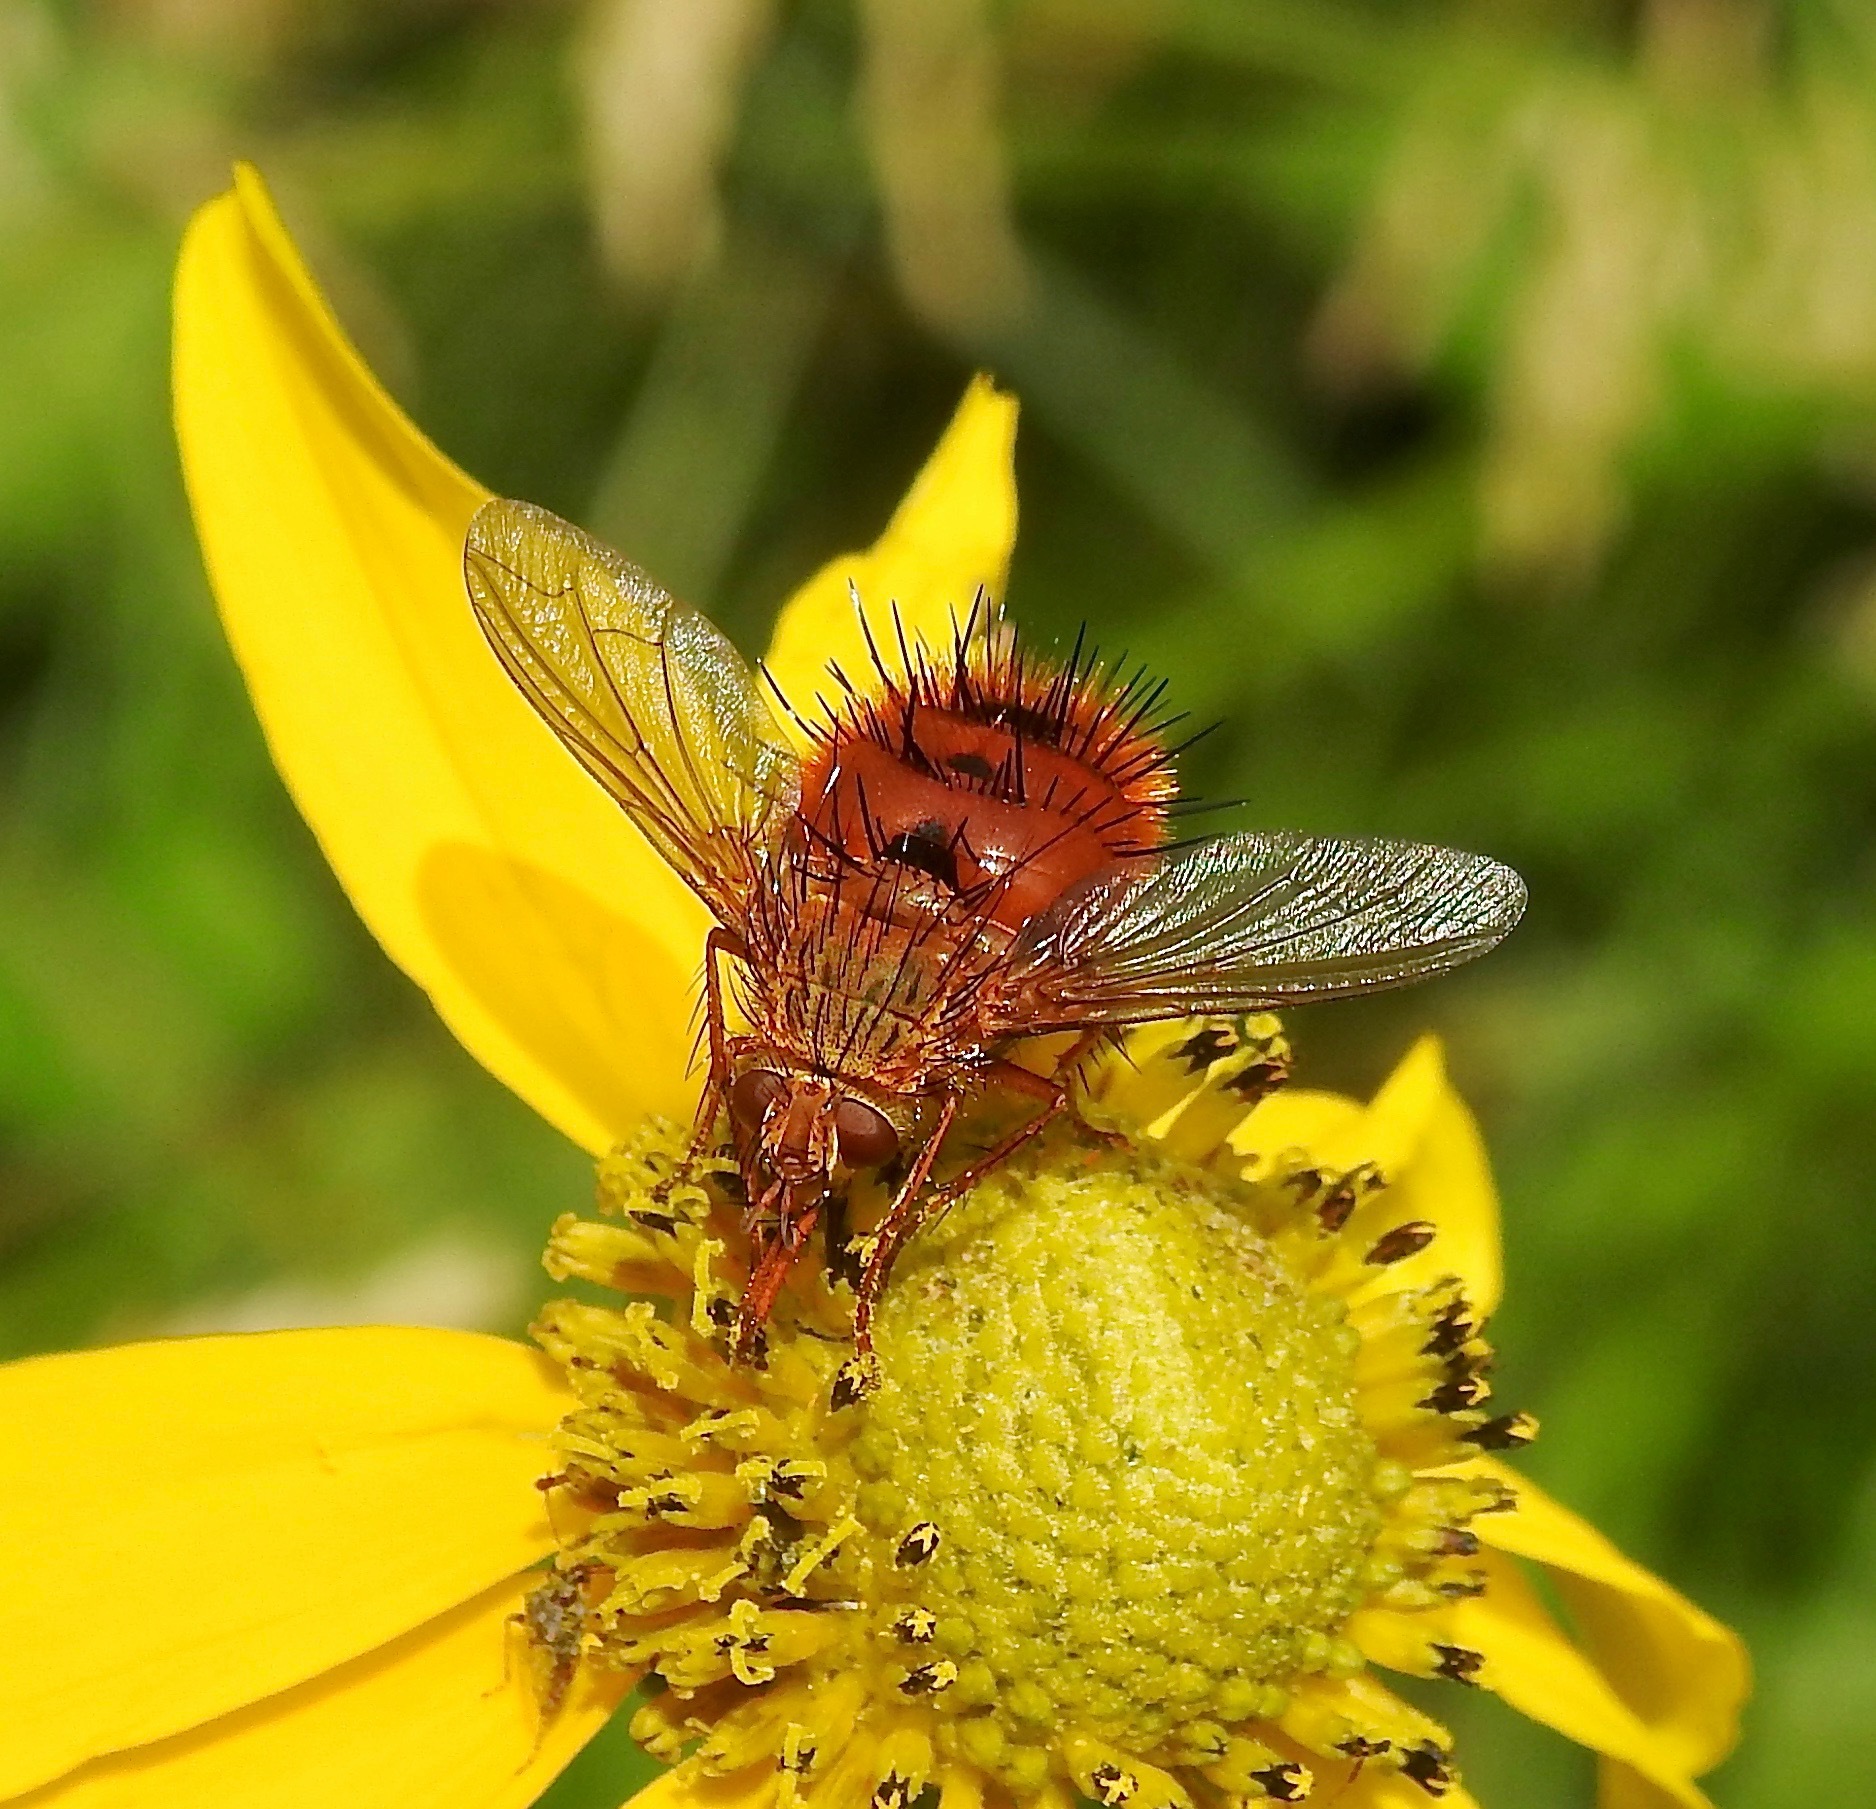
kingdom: Animalia
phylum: Arthropoda
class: Insecta
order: Diptera
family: Tachinidae
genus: Adejeania
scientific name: Adejeania vexatrix
